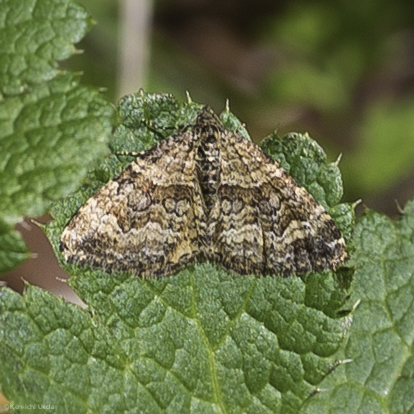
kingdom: Animalia
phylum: Arthropoda
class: Insecta
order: Lepidoptera
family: Geometridae
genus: Epirrhoe
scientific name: Epirrhoe plebeculata
